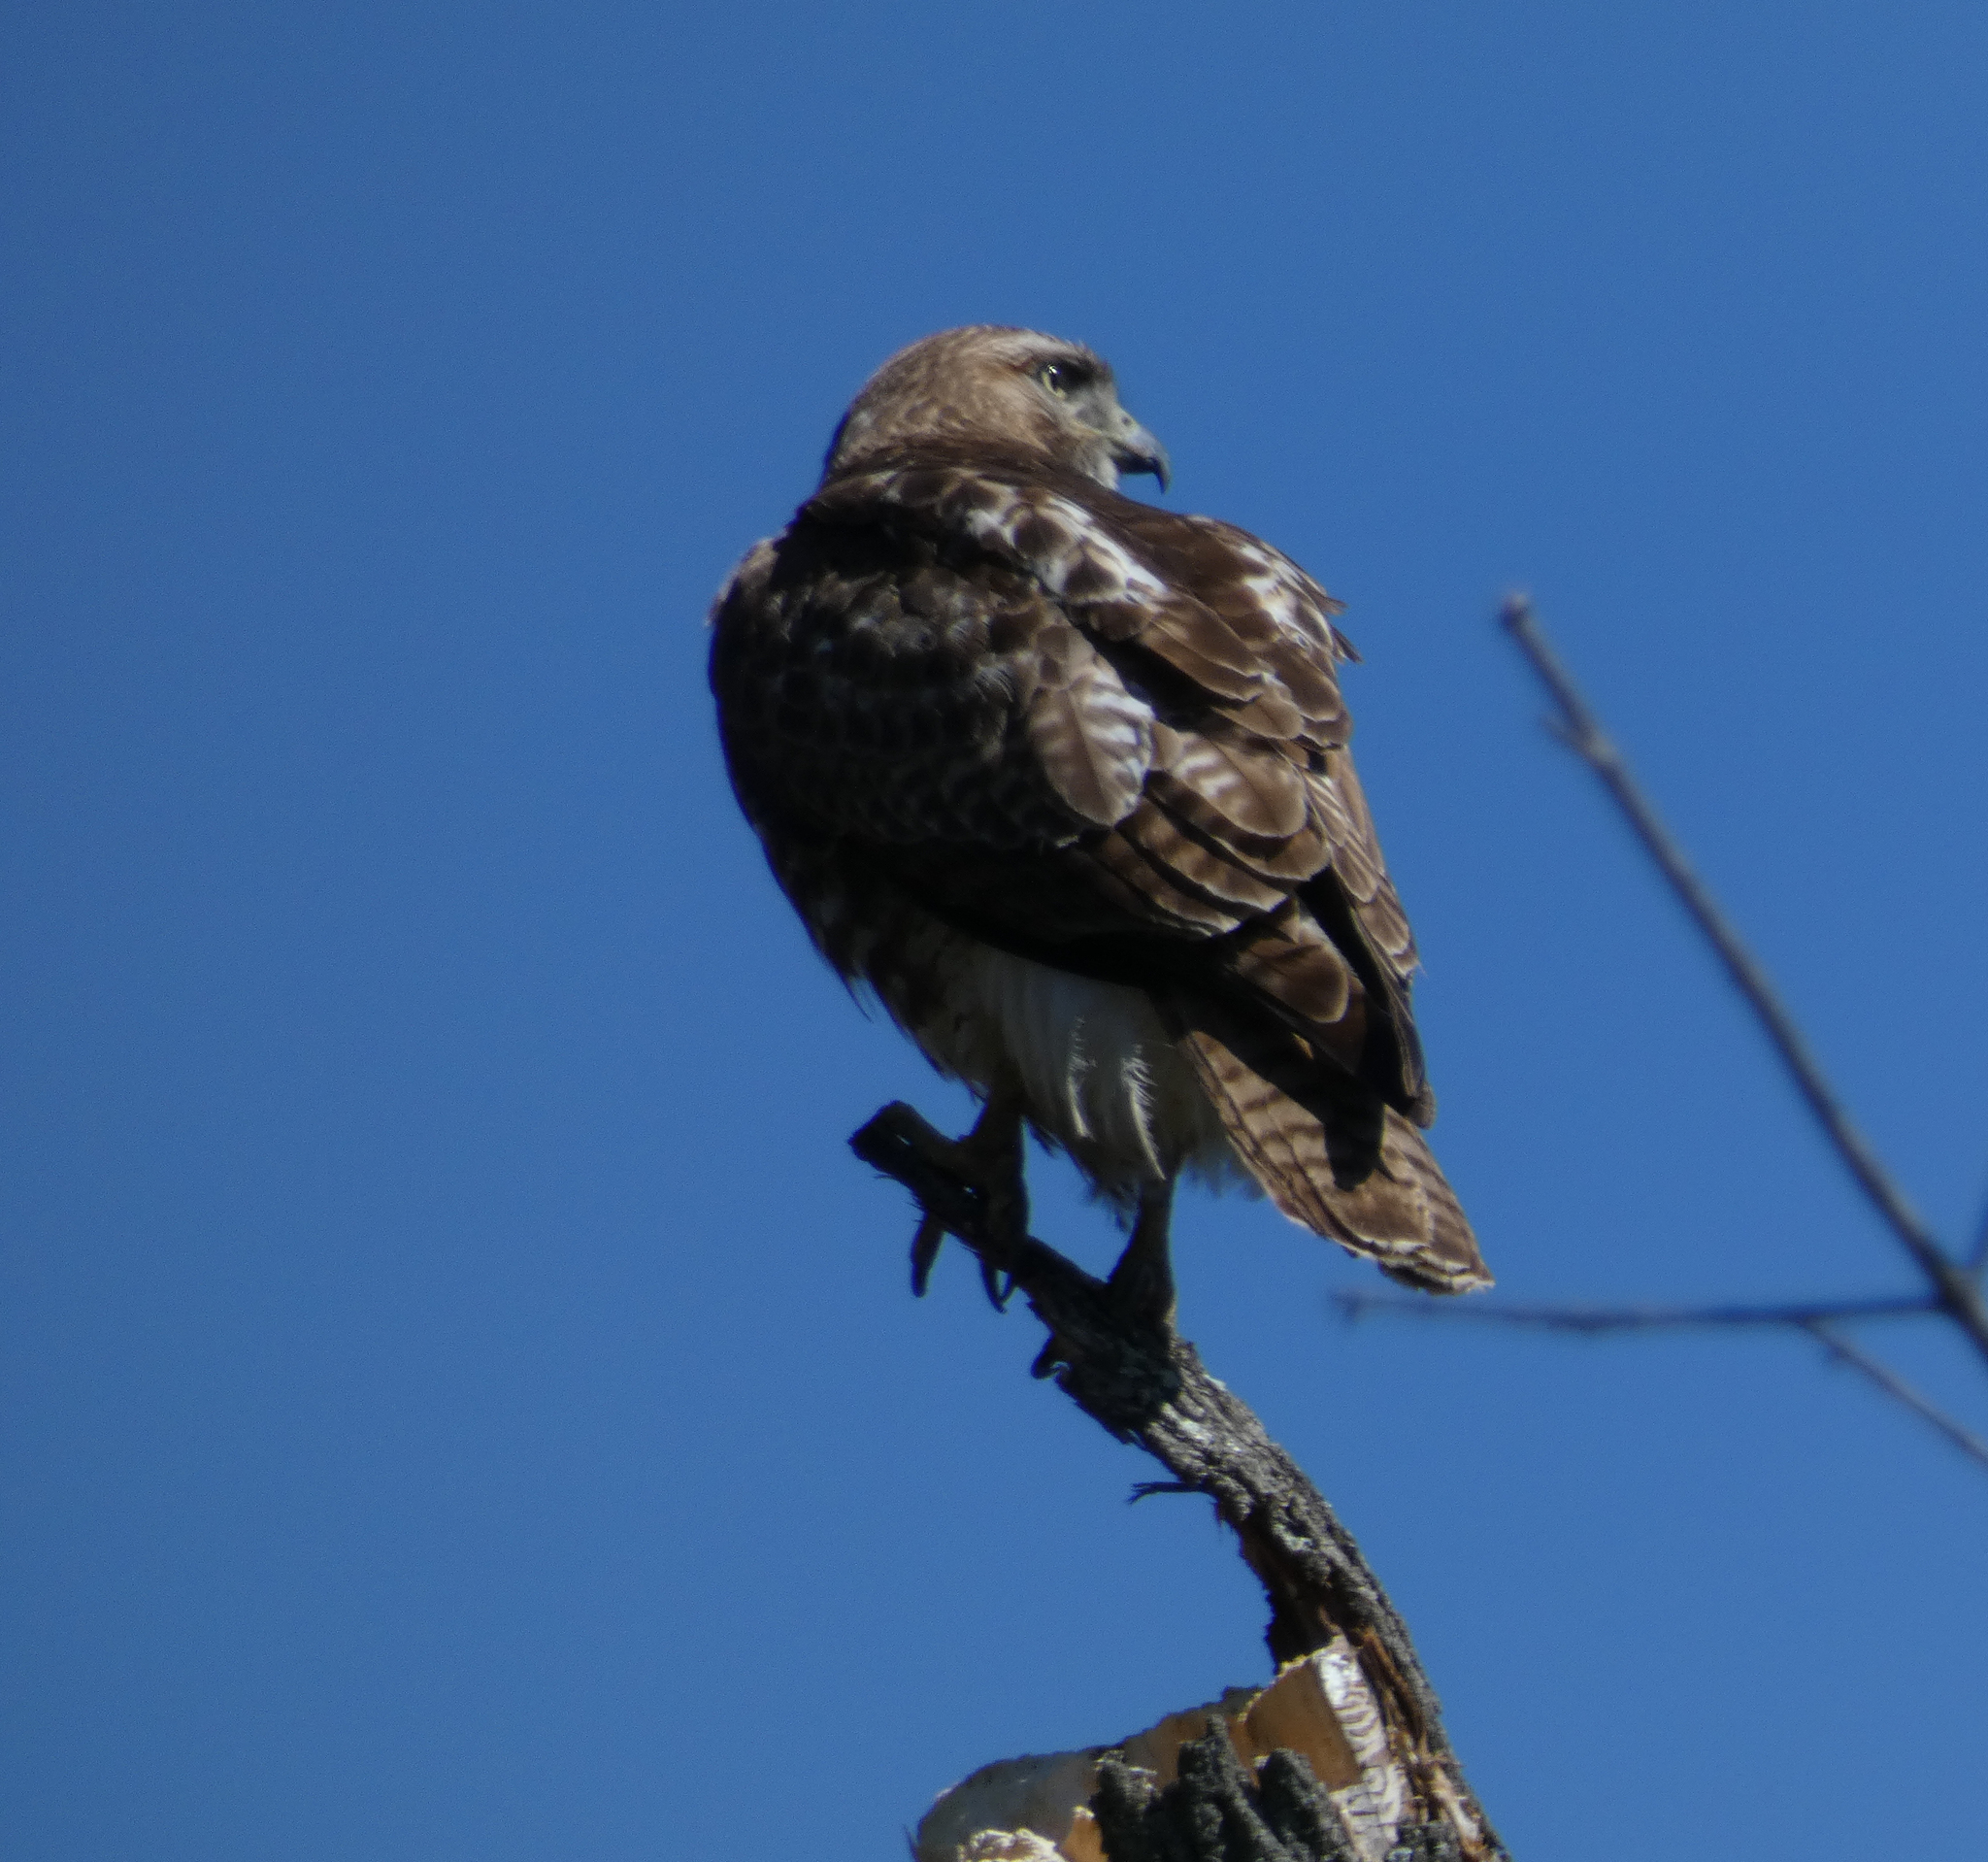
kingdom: Animalia
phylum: Chordata
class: Aves
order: Accipitriformes
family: Accipitridae
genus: Buteo
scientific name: Buteo jamaicensis
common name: Red-tailed hawk
